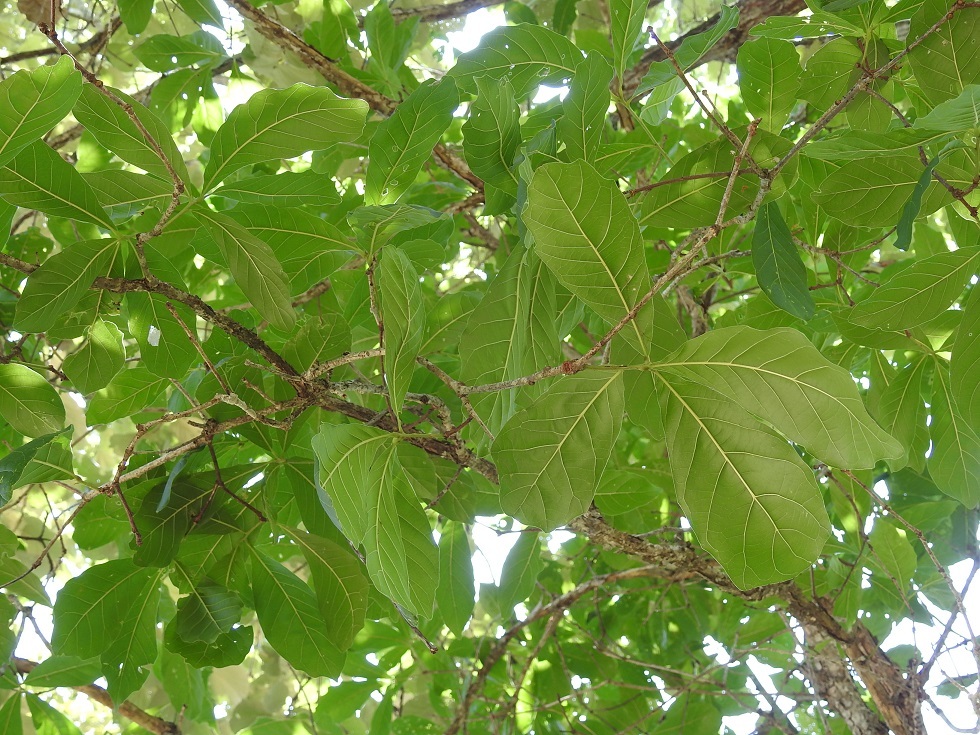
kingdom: Plantae
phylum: Tracheophyta
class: Magnoliopsida
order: Fagales
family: Fagaceae
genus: Quercus
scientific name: Quercus glaucescens
